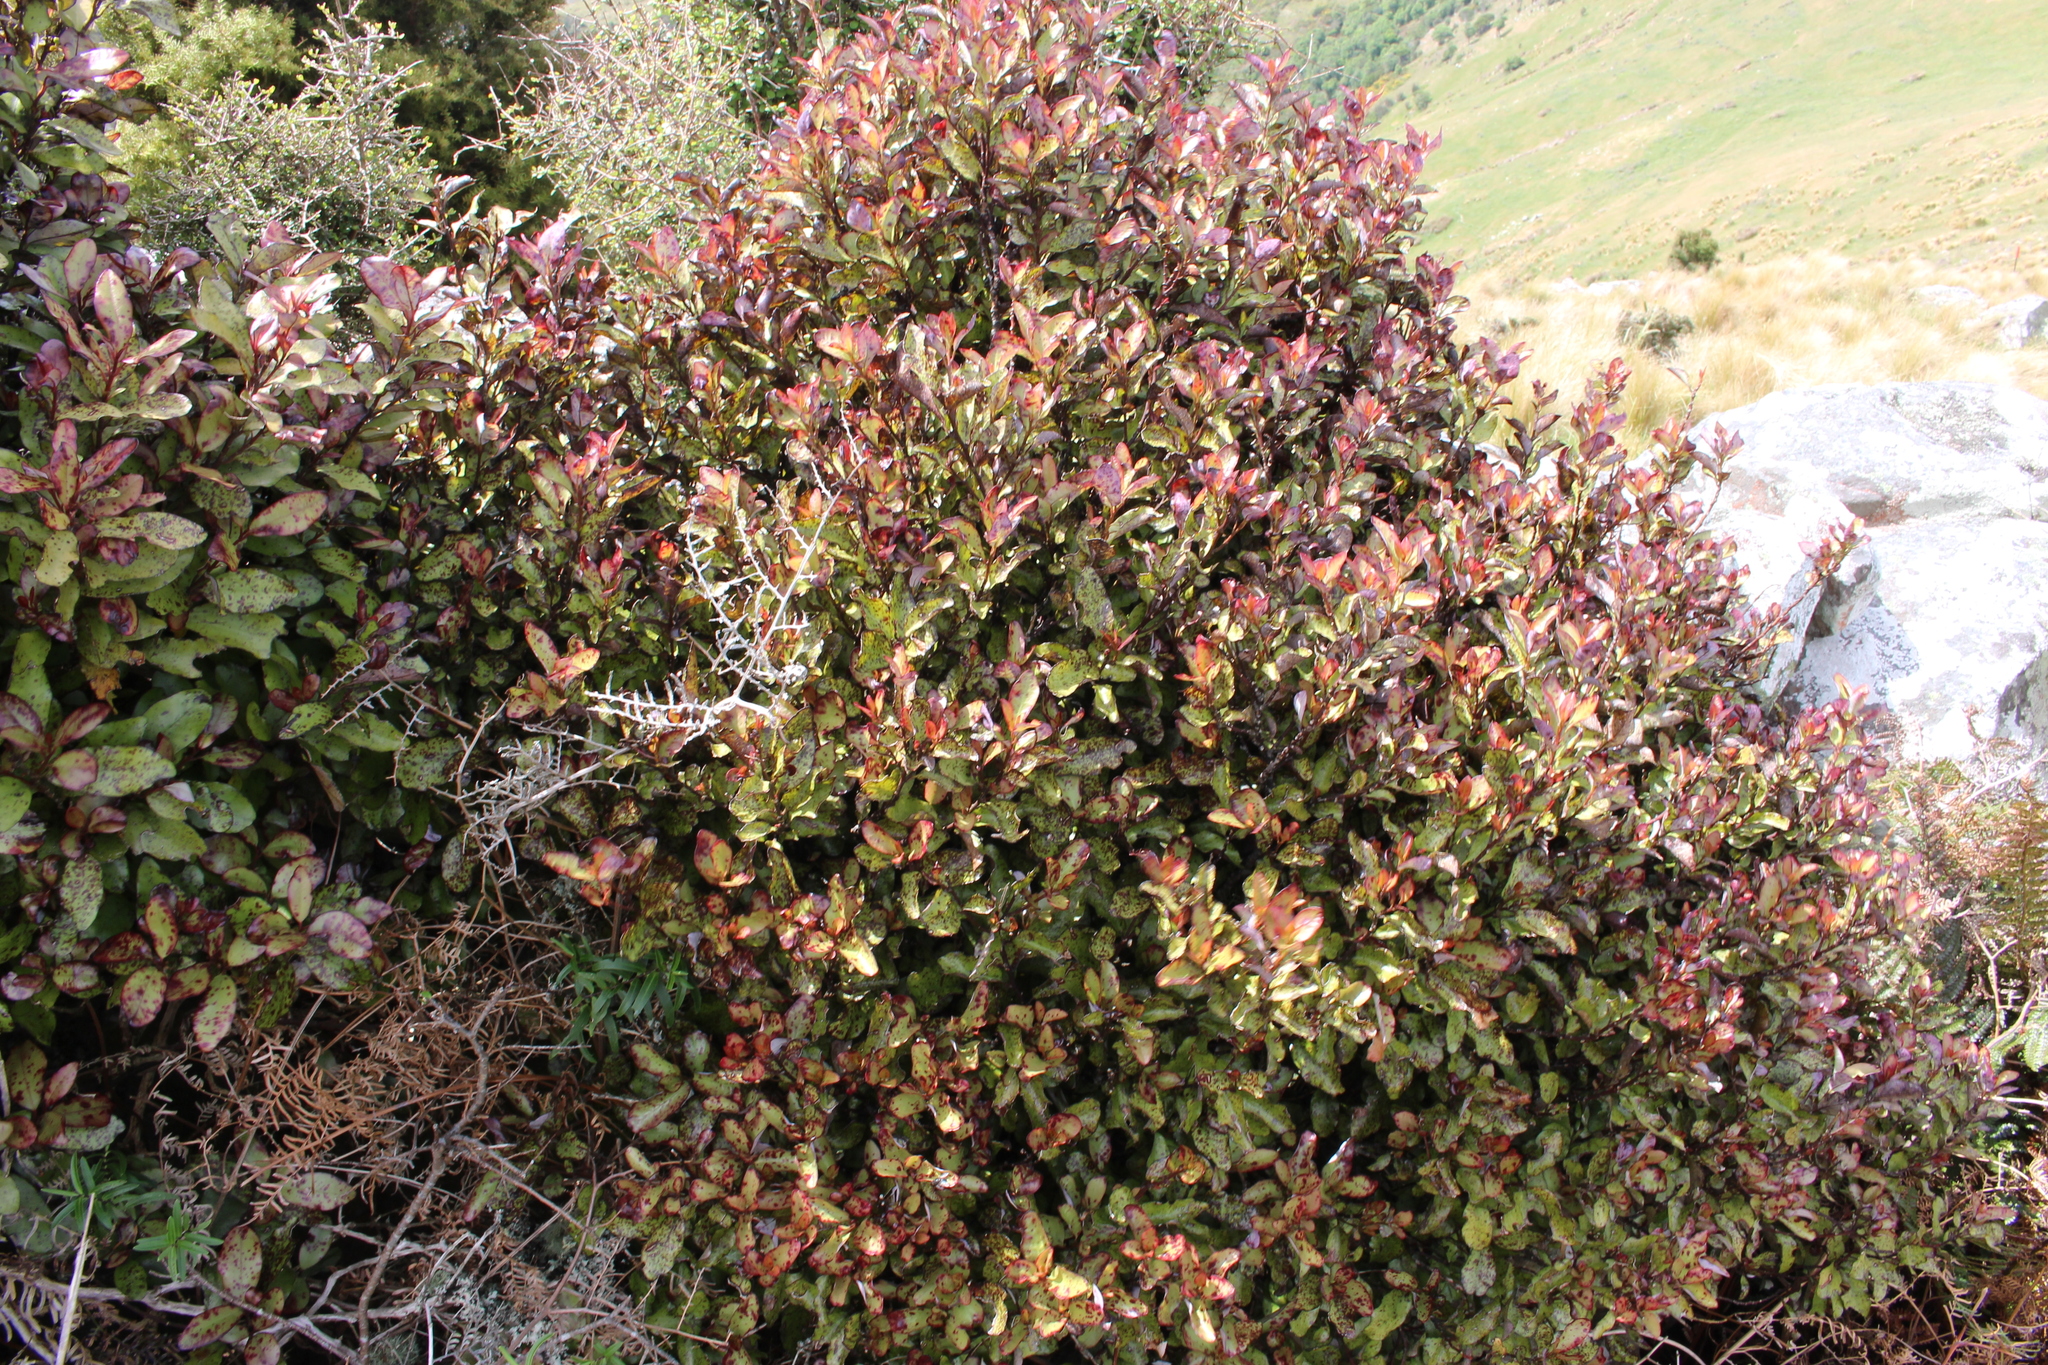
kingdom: Plantae
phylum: Tracheophyta
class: Magnoliopsida
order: Canellales
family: Winteraceae
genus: Pseudowintera
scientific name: Pseudowintera colorata
